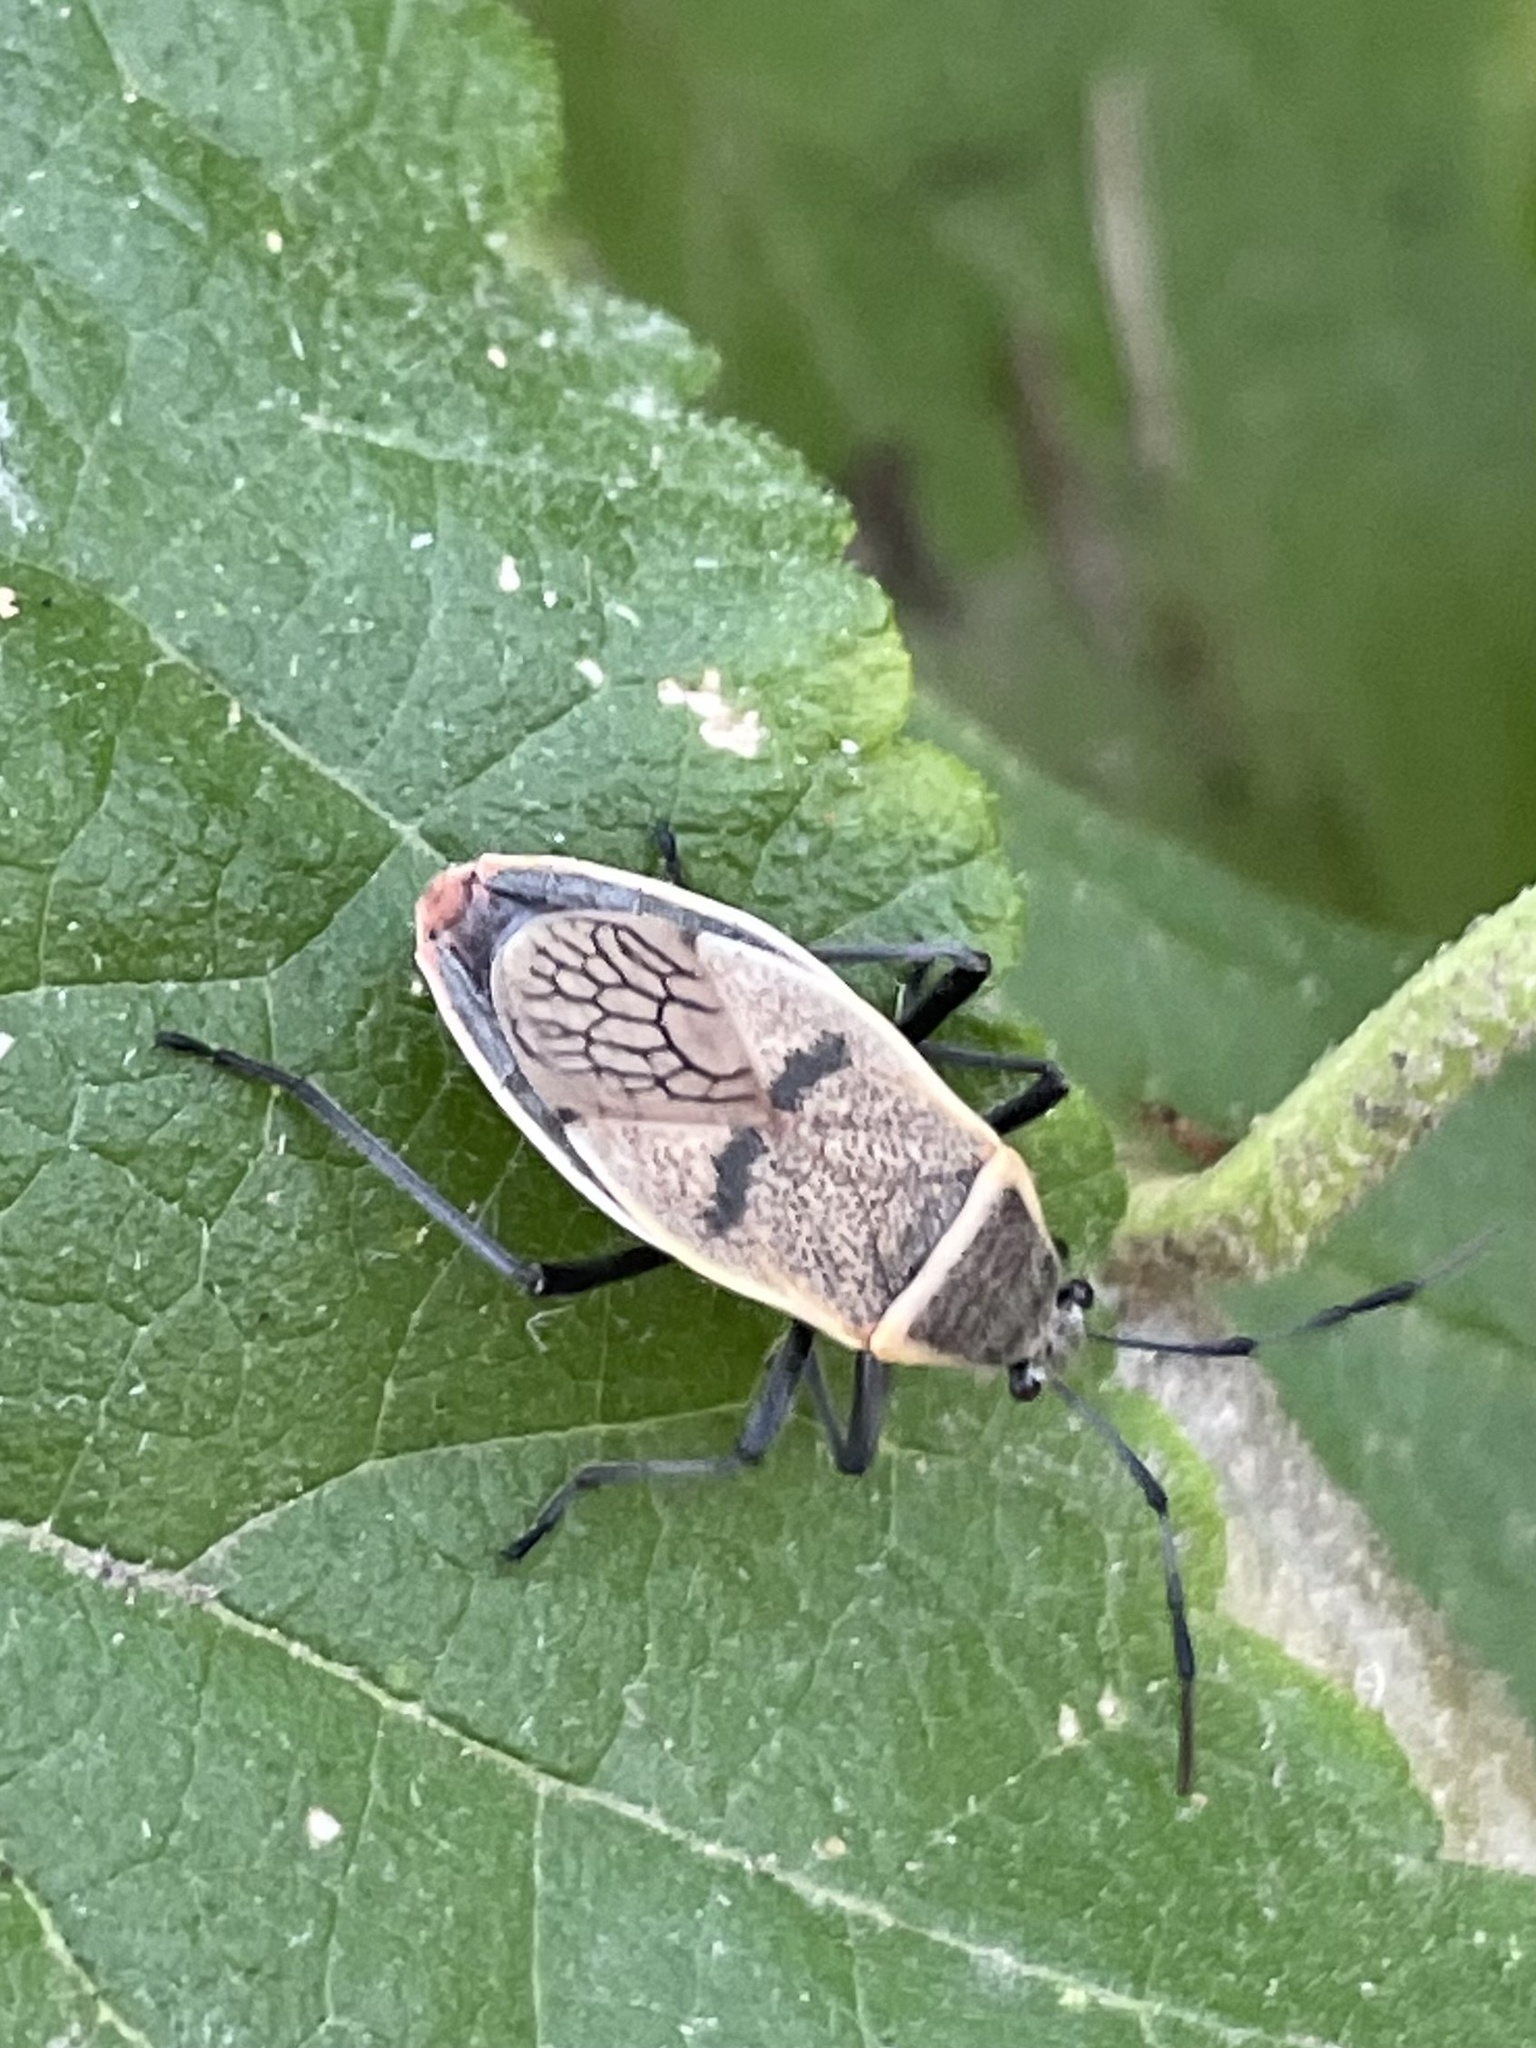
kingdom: Animalia
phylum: Arthropoda
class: Insecta
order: Hemiptera
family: Largidae
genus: Largus
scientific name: Largus maculatus
